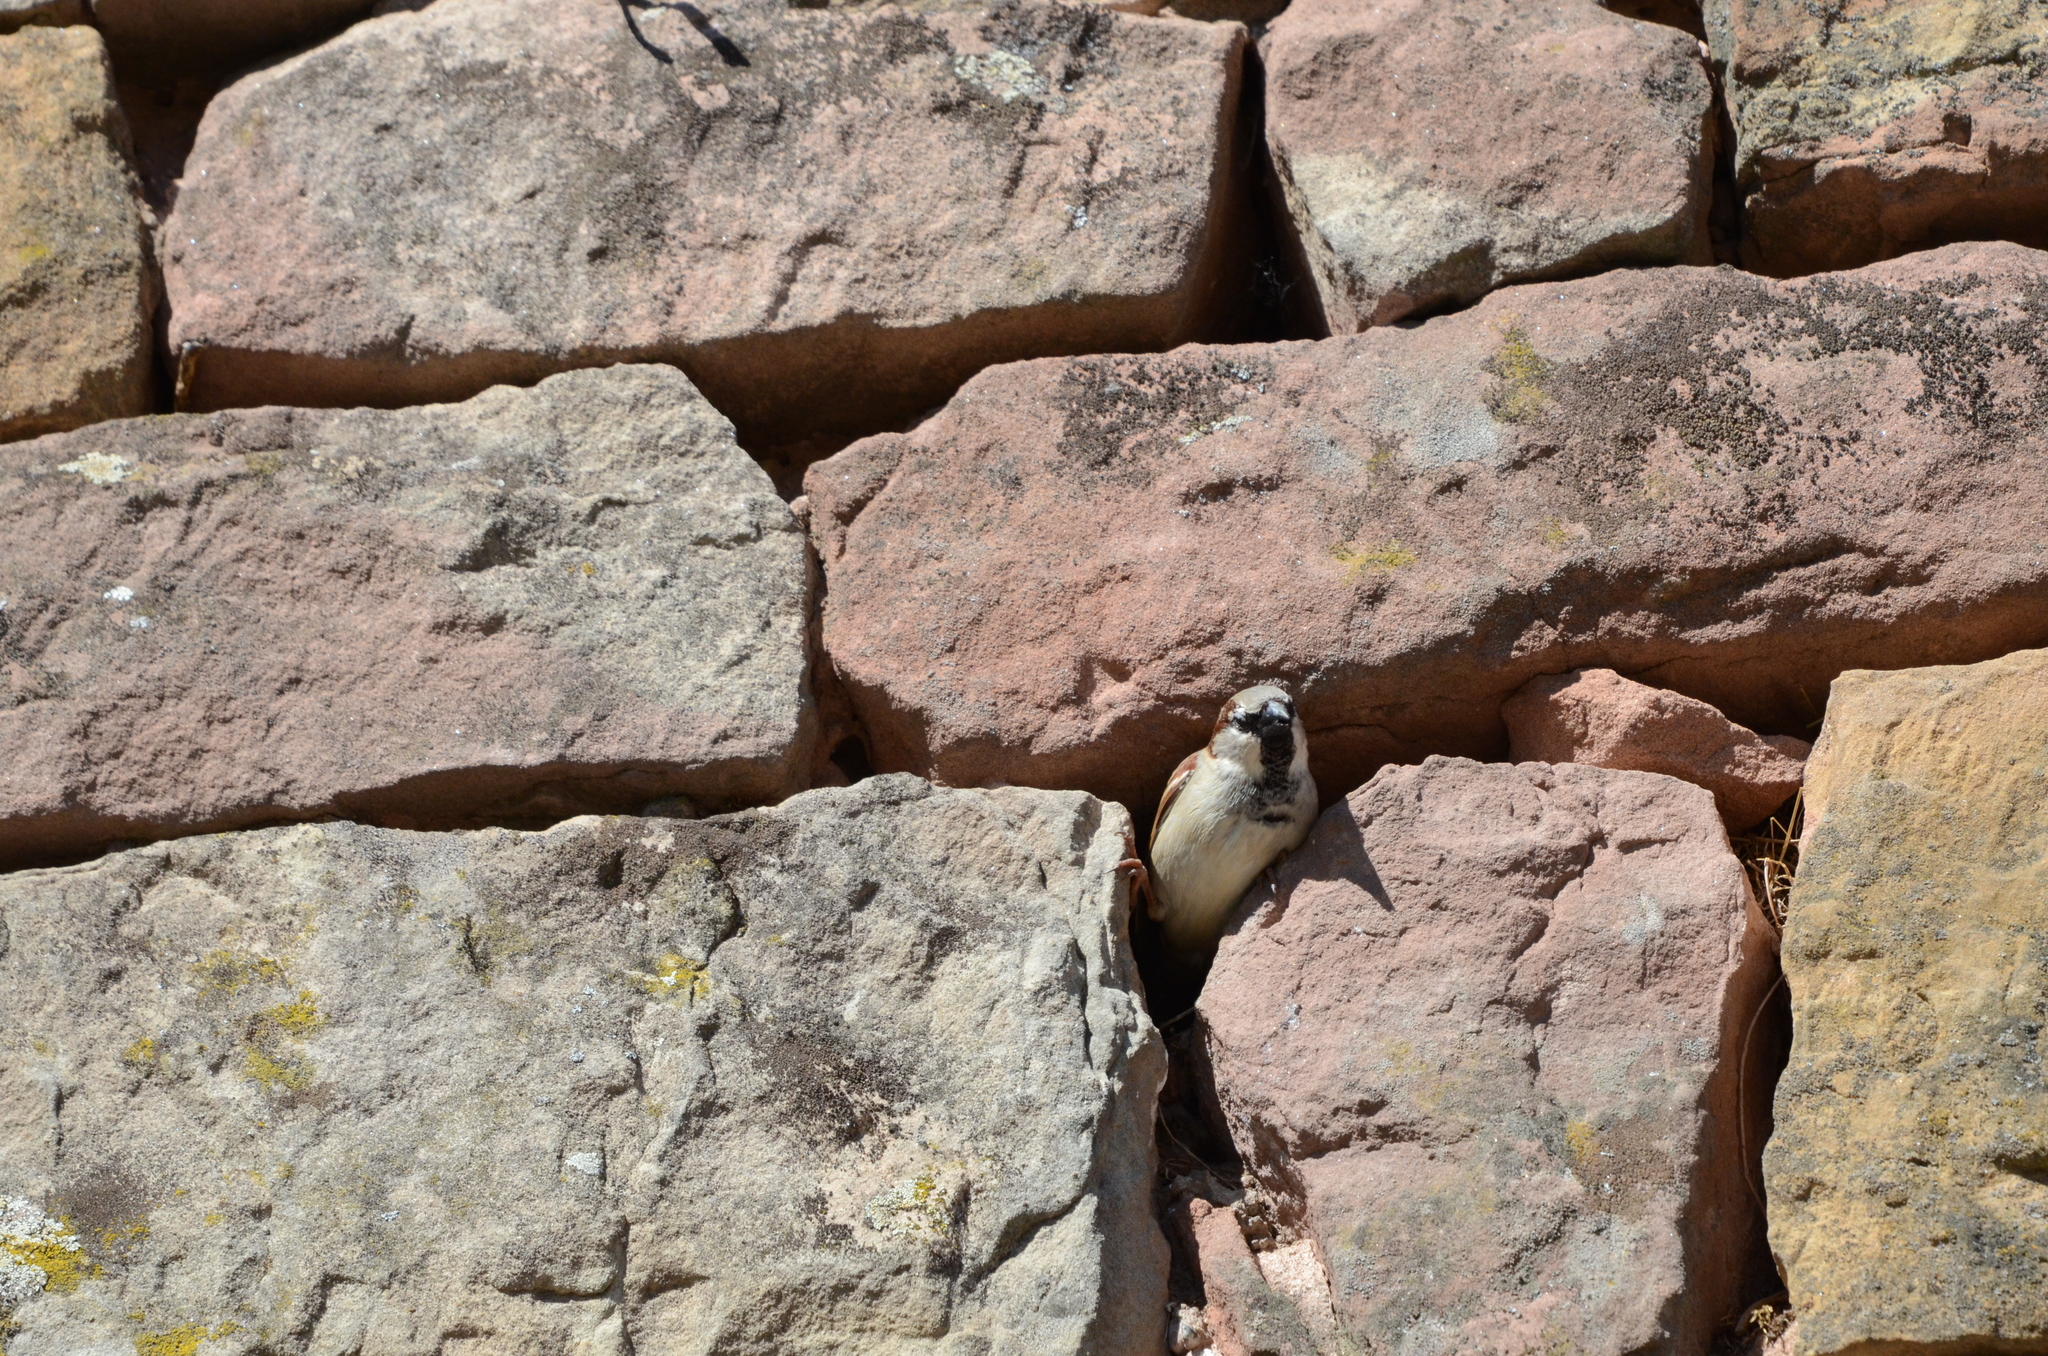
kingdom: Animalia
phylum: Chordata
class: Aves
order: Passeriformes
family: Passeridae
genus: Passer
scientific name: Passer domesticus
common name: House sparrow
